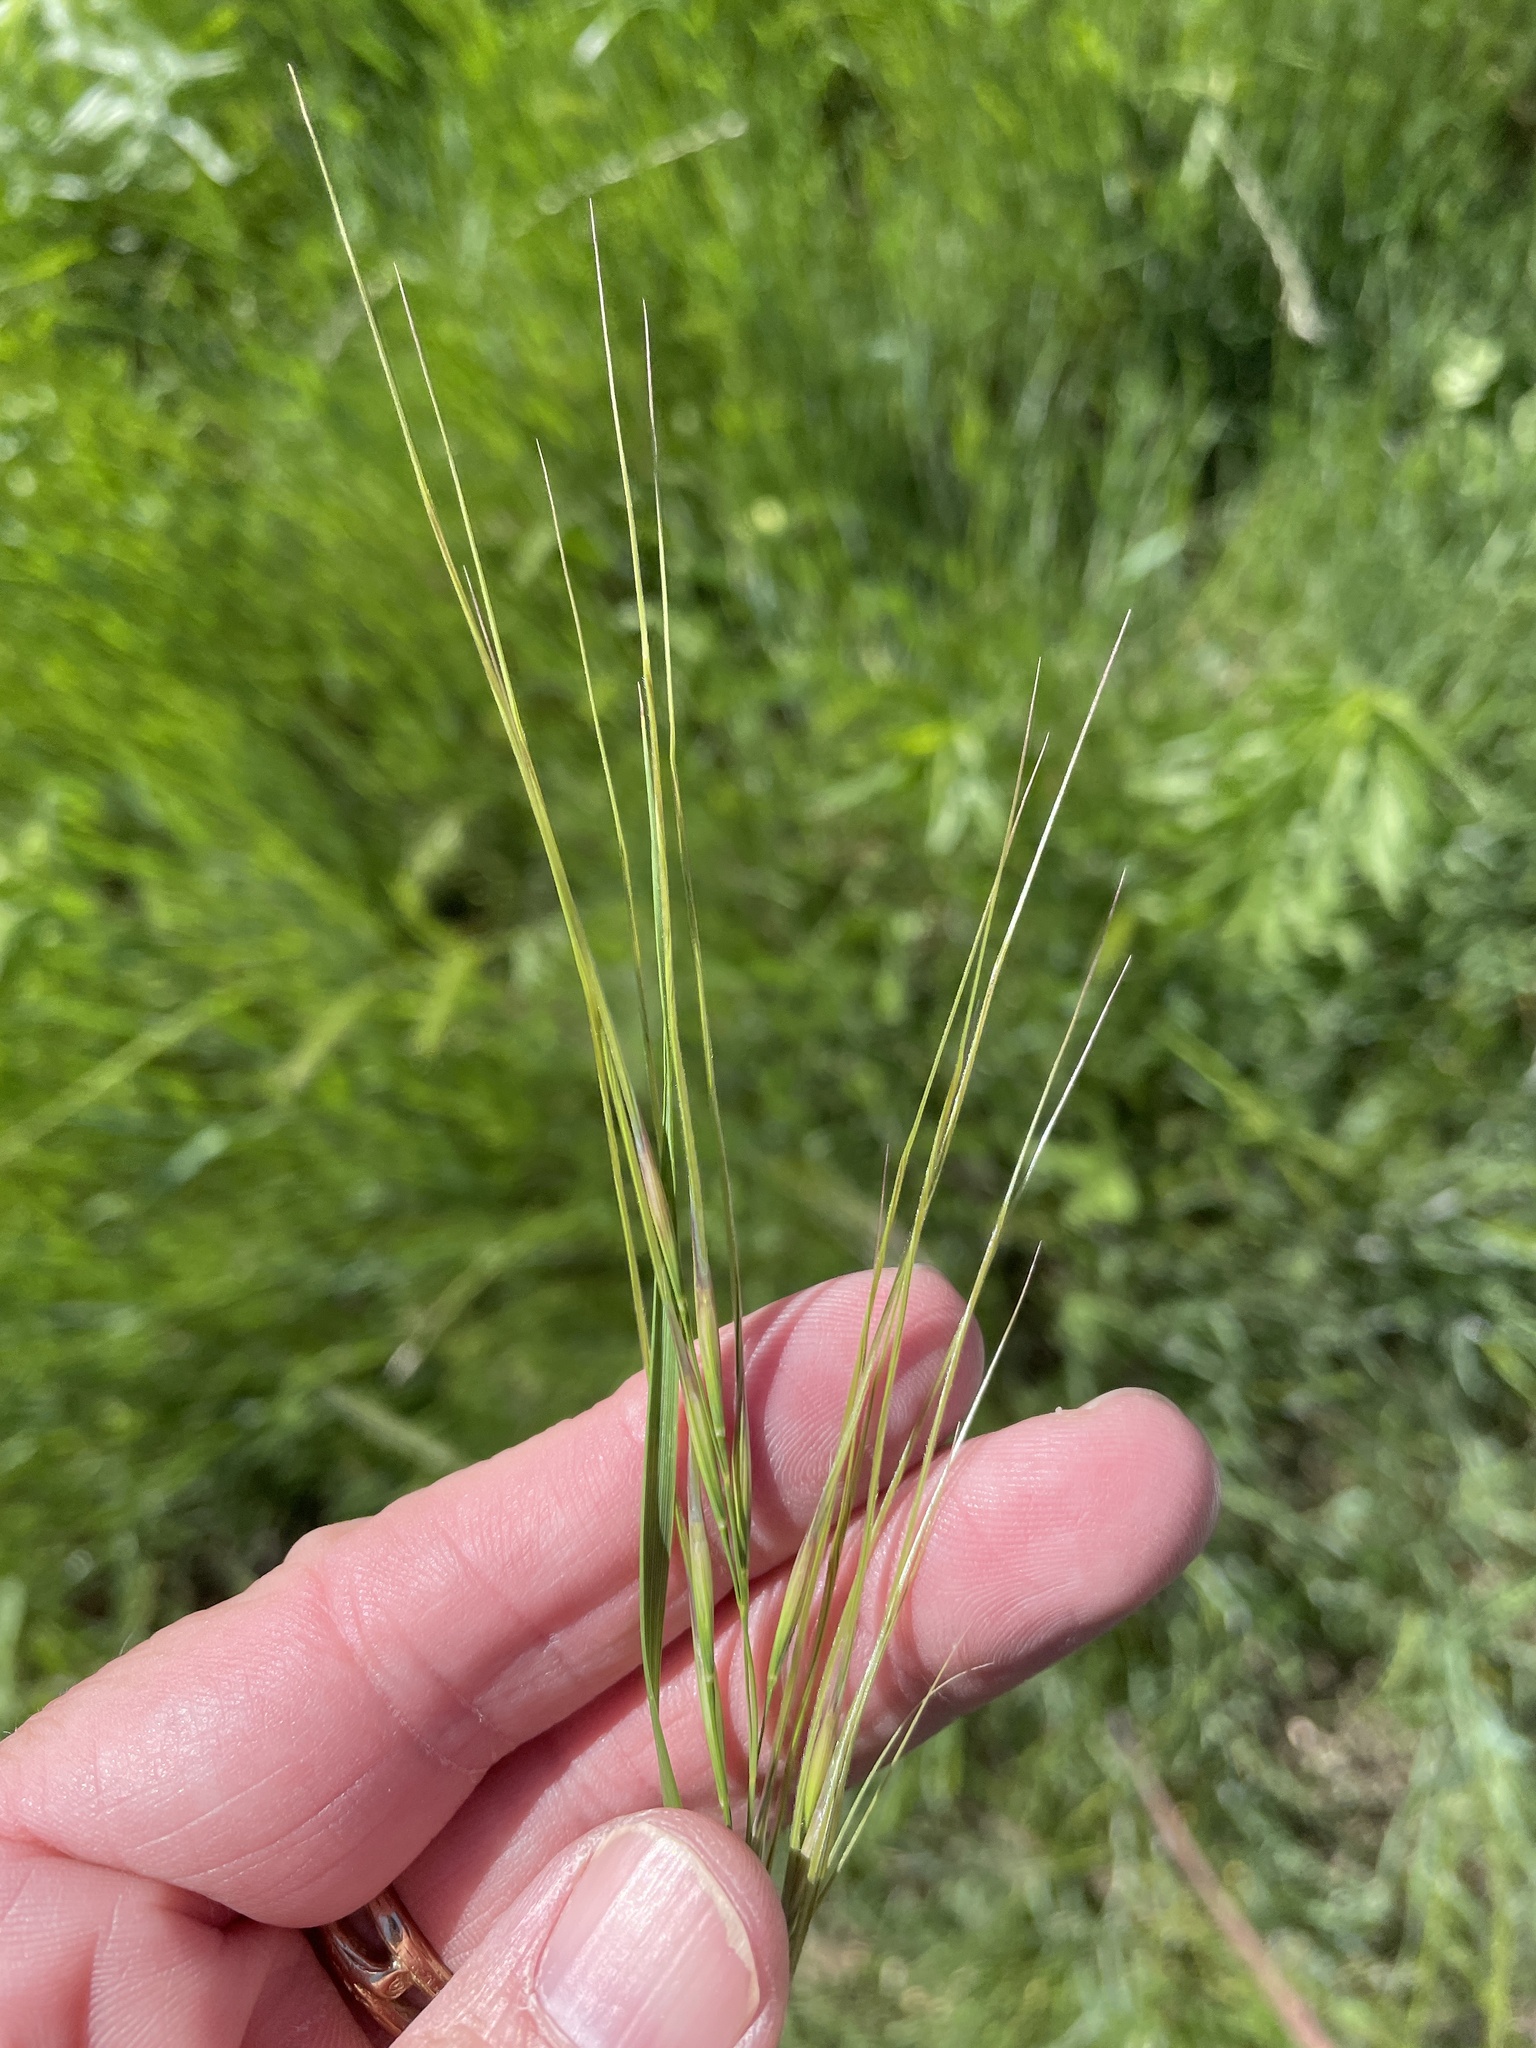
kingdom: Plantae
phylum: Tracheophyta
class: Liliopsida
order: Poales
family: Poaceae
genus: Nassella
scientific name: Nassella leucotricha
